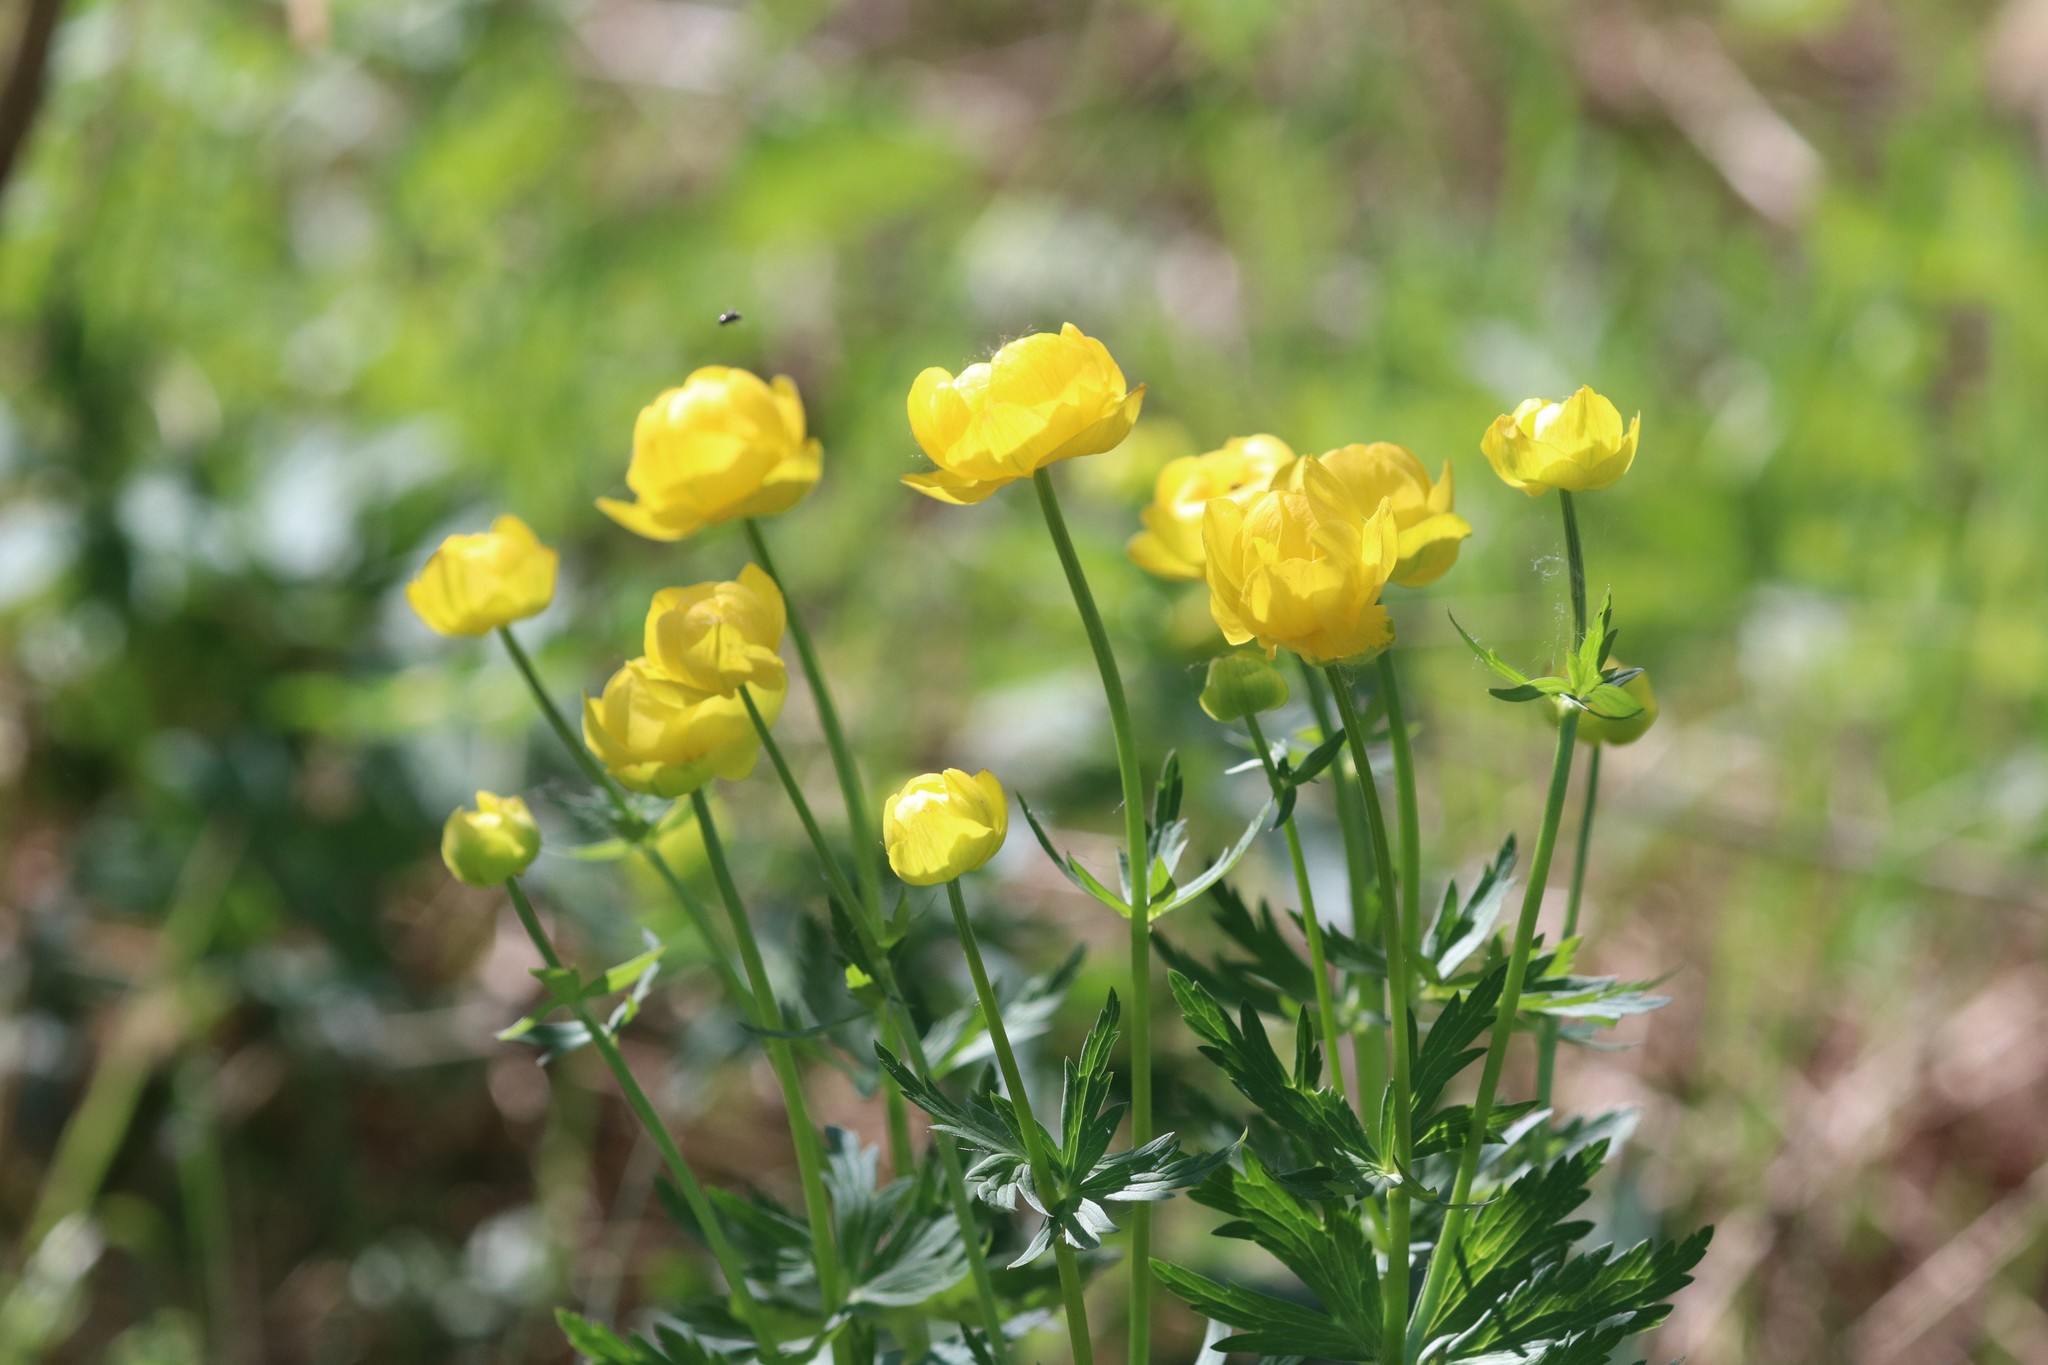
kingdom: Plantae
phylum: Tracheophyta
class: Magnoliopsida
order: Ranunculales
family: Ranunculaceae
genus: Trollius
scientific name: Trollius europaeus
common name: European globeflower
